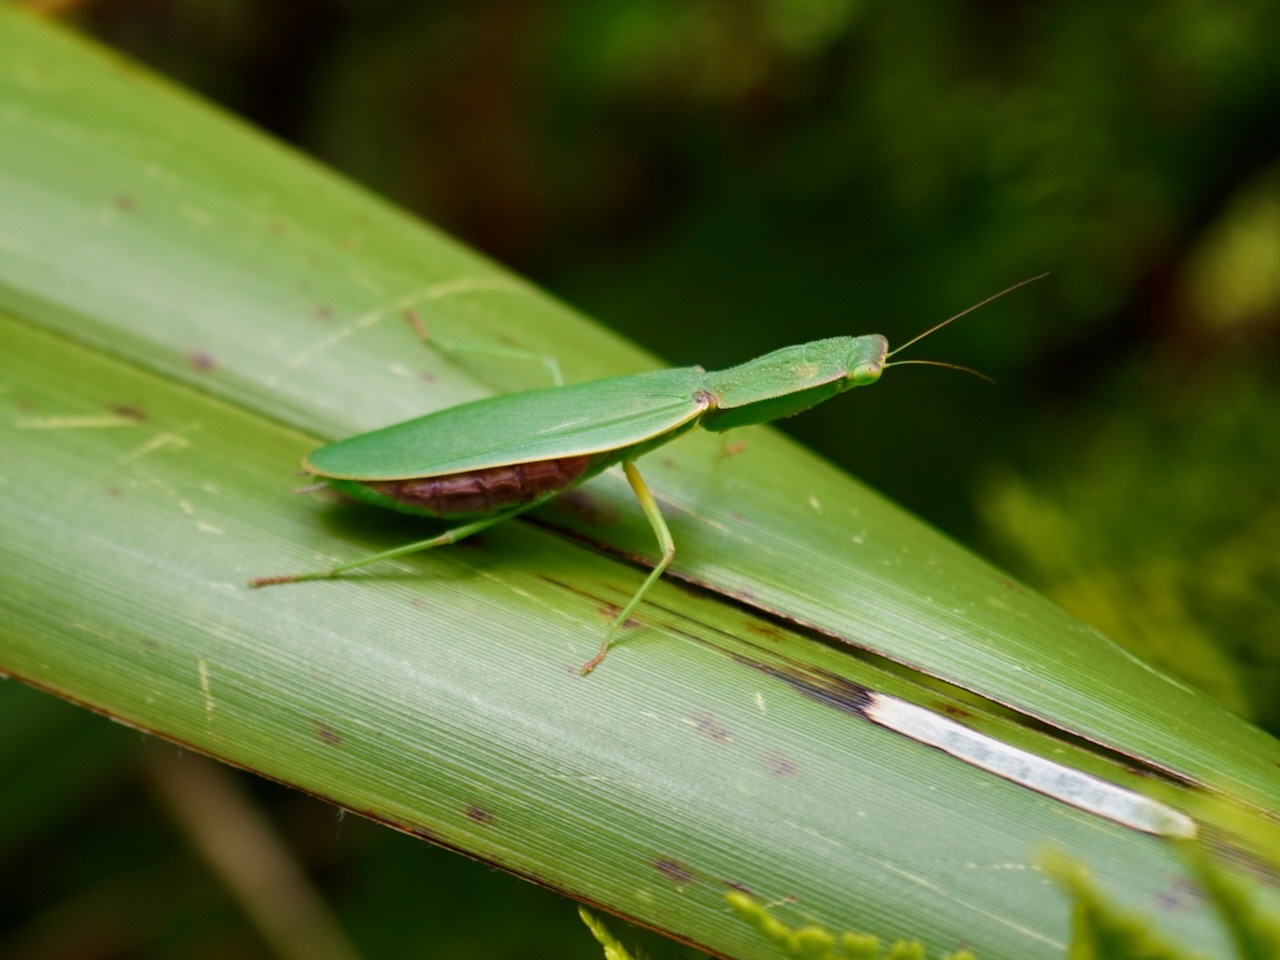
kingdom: Animalia
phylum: Arthropoda
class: Insecta
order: Mantodea
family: Mantidae
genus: Orthodera
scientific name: Orthodera novaezealandiae
